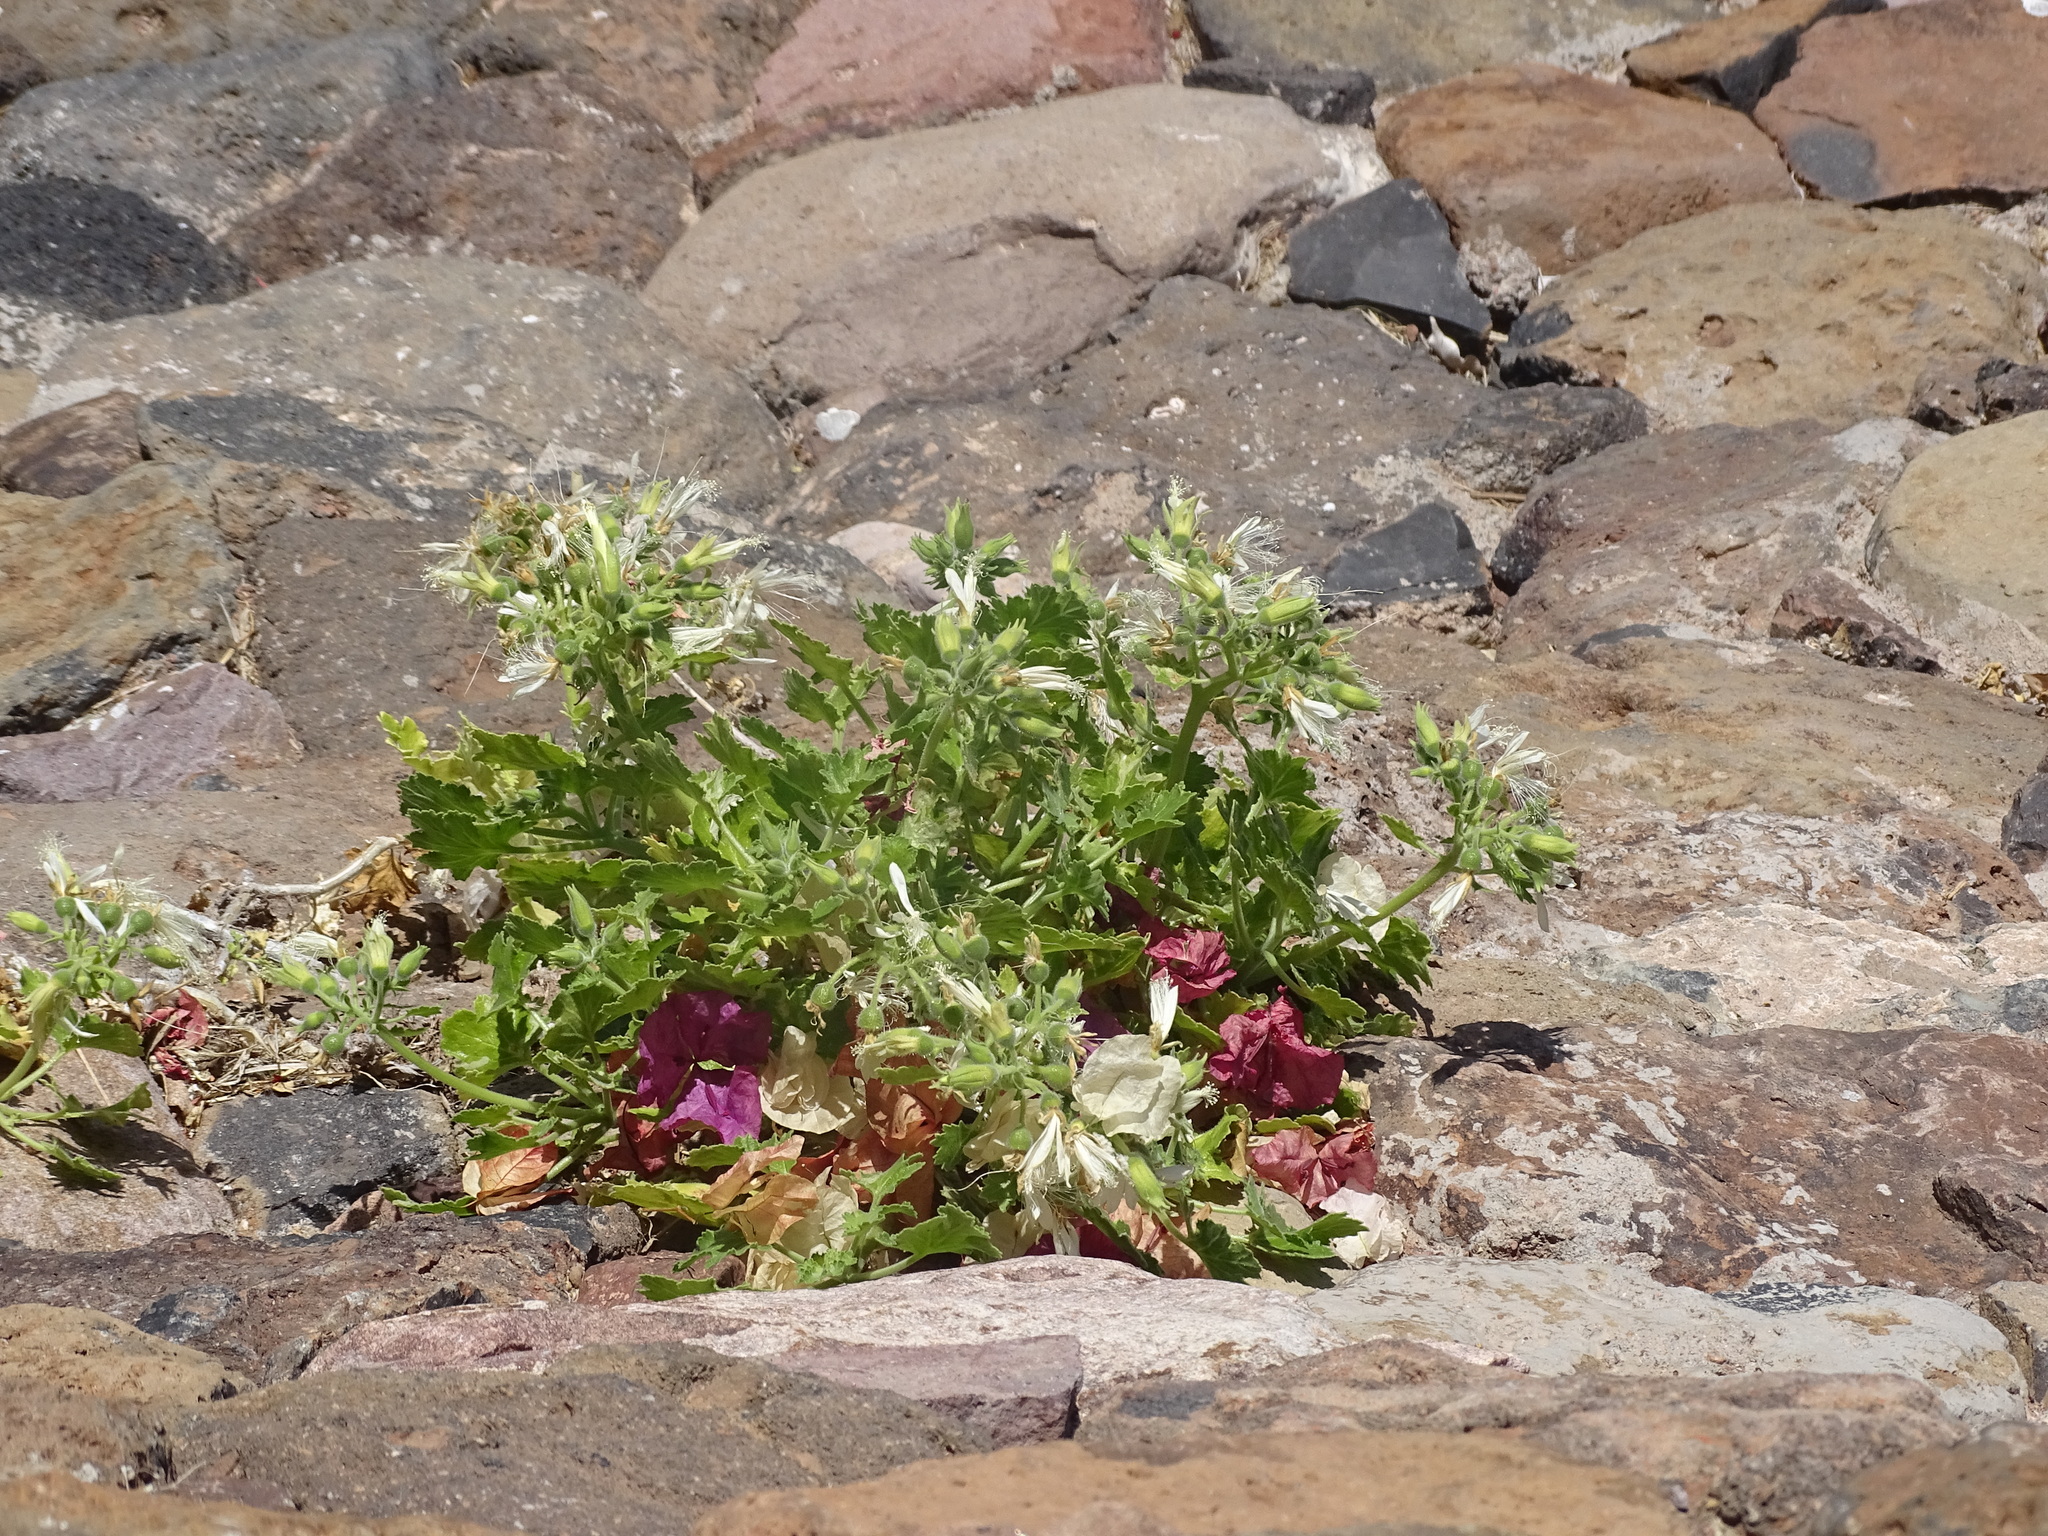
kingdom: Plantae
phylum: Tracheophyta
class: Magnoliopsida
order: Cornales
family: Loasaceae
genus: Eucnide
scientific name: Eucnide cordata
